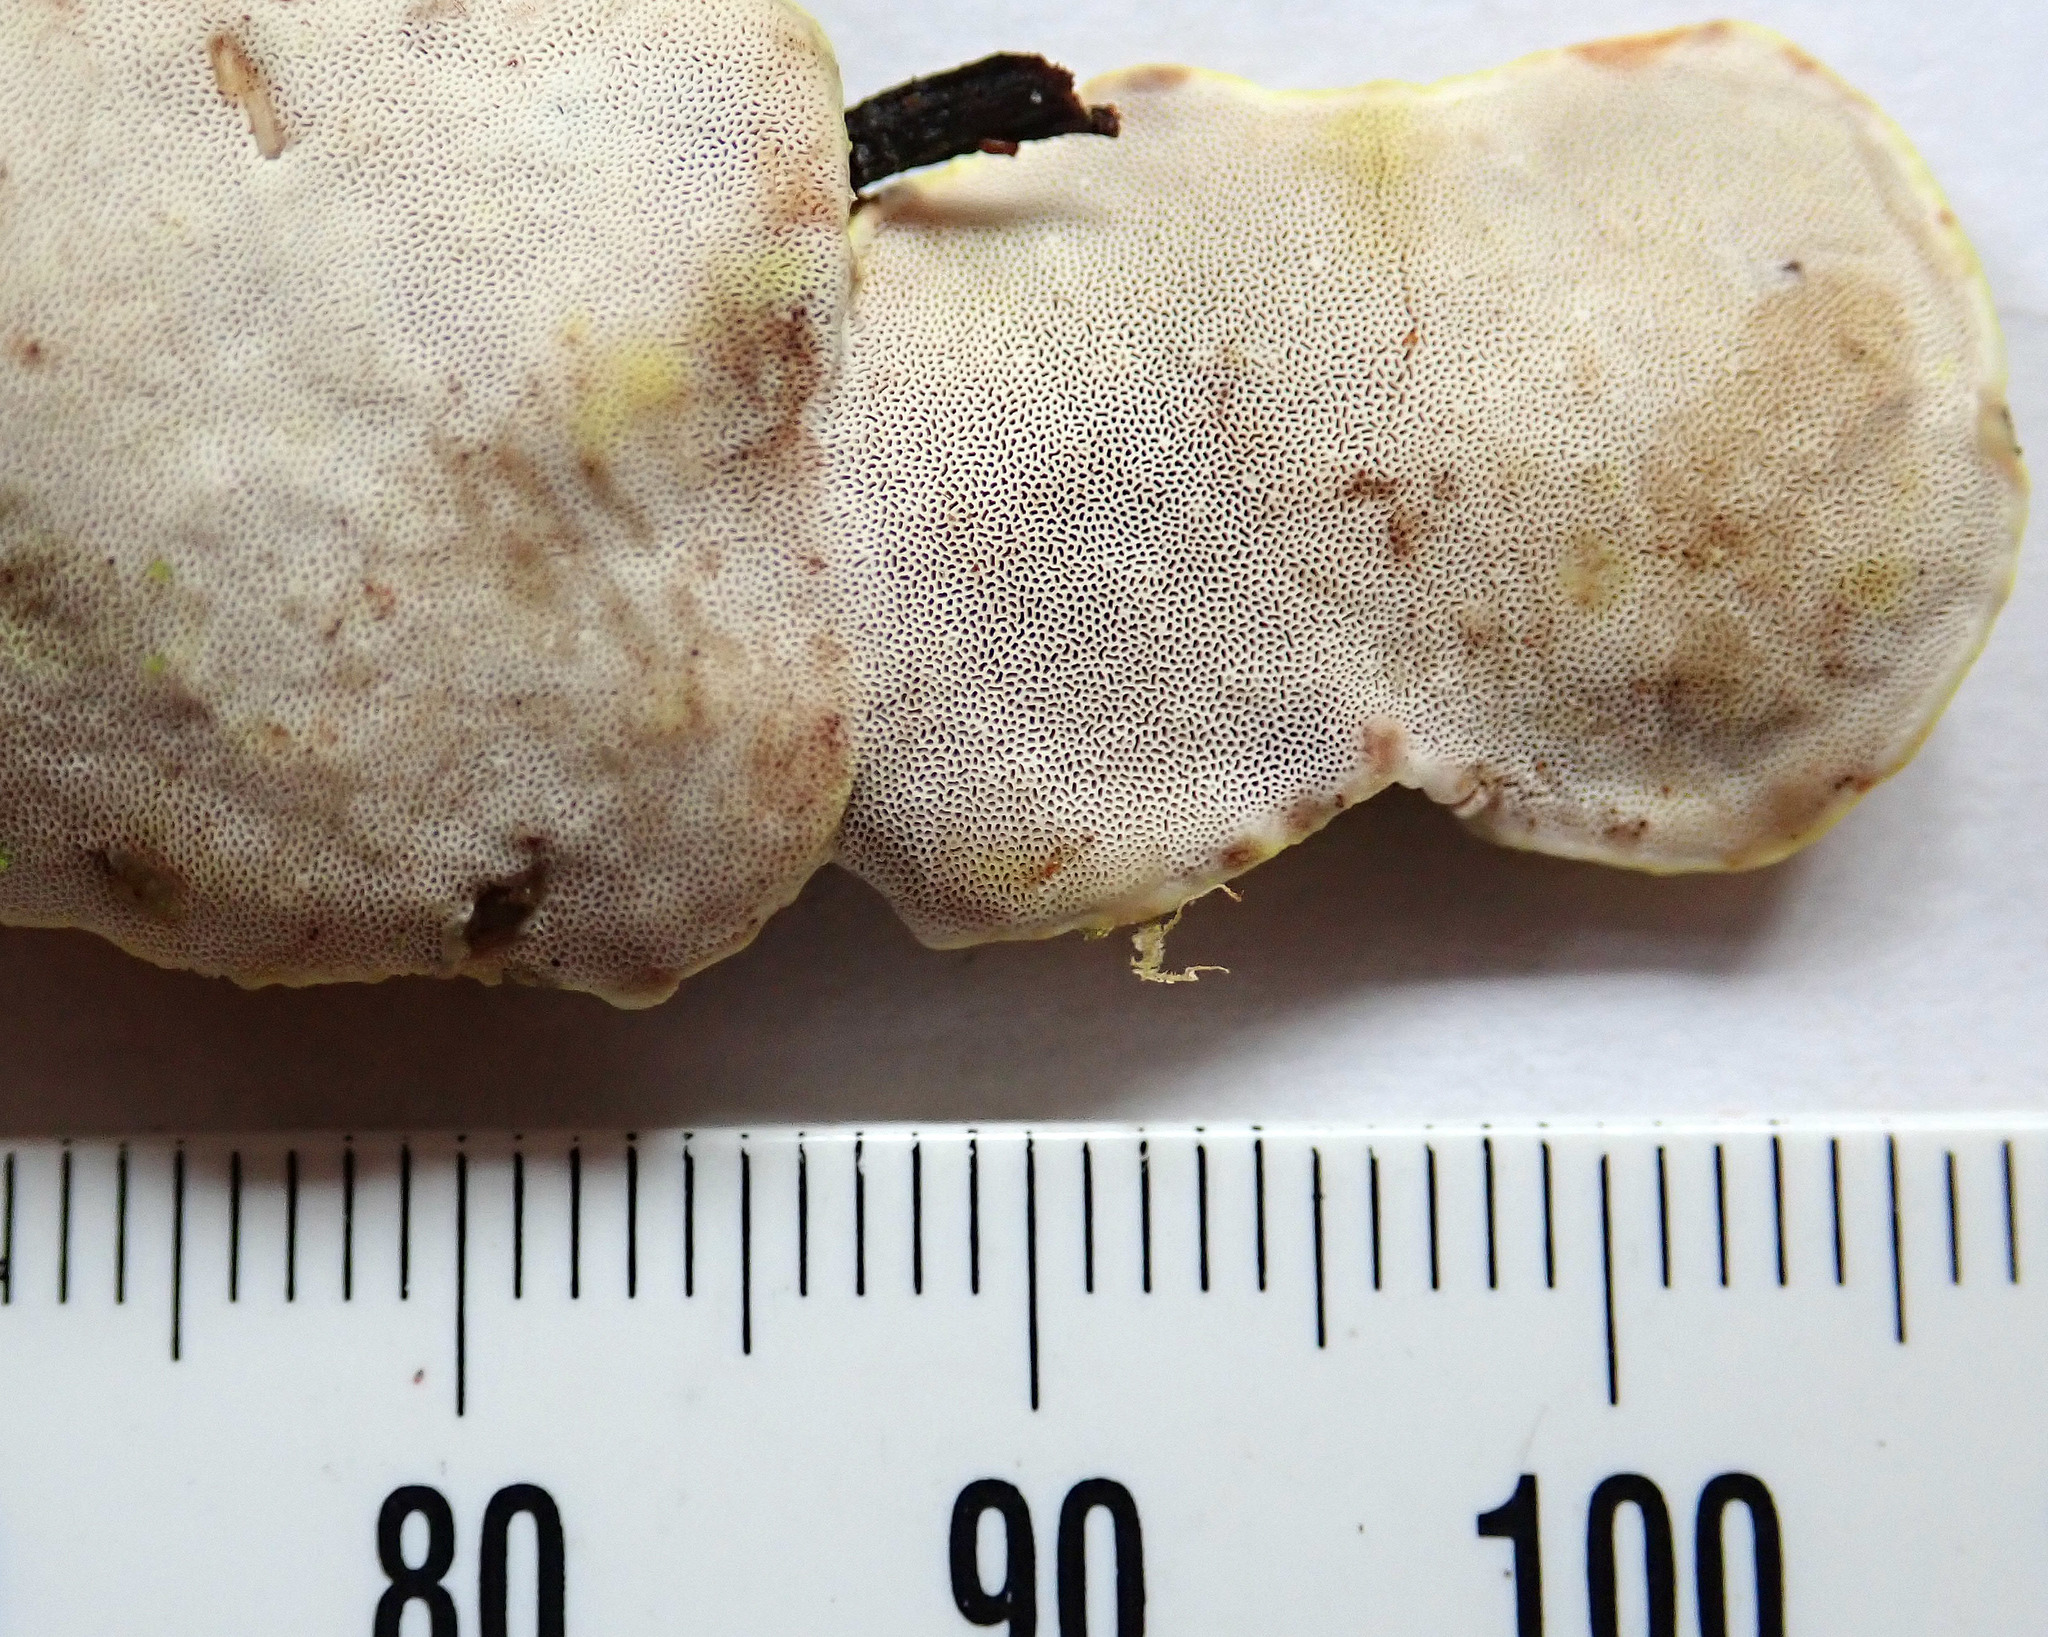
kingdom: Fungi
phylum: Basidiomycota
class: Agaricomycetes
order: Polyporales
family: Steccherinaceae
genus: Austeria
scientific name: Austeria citrea
